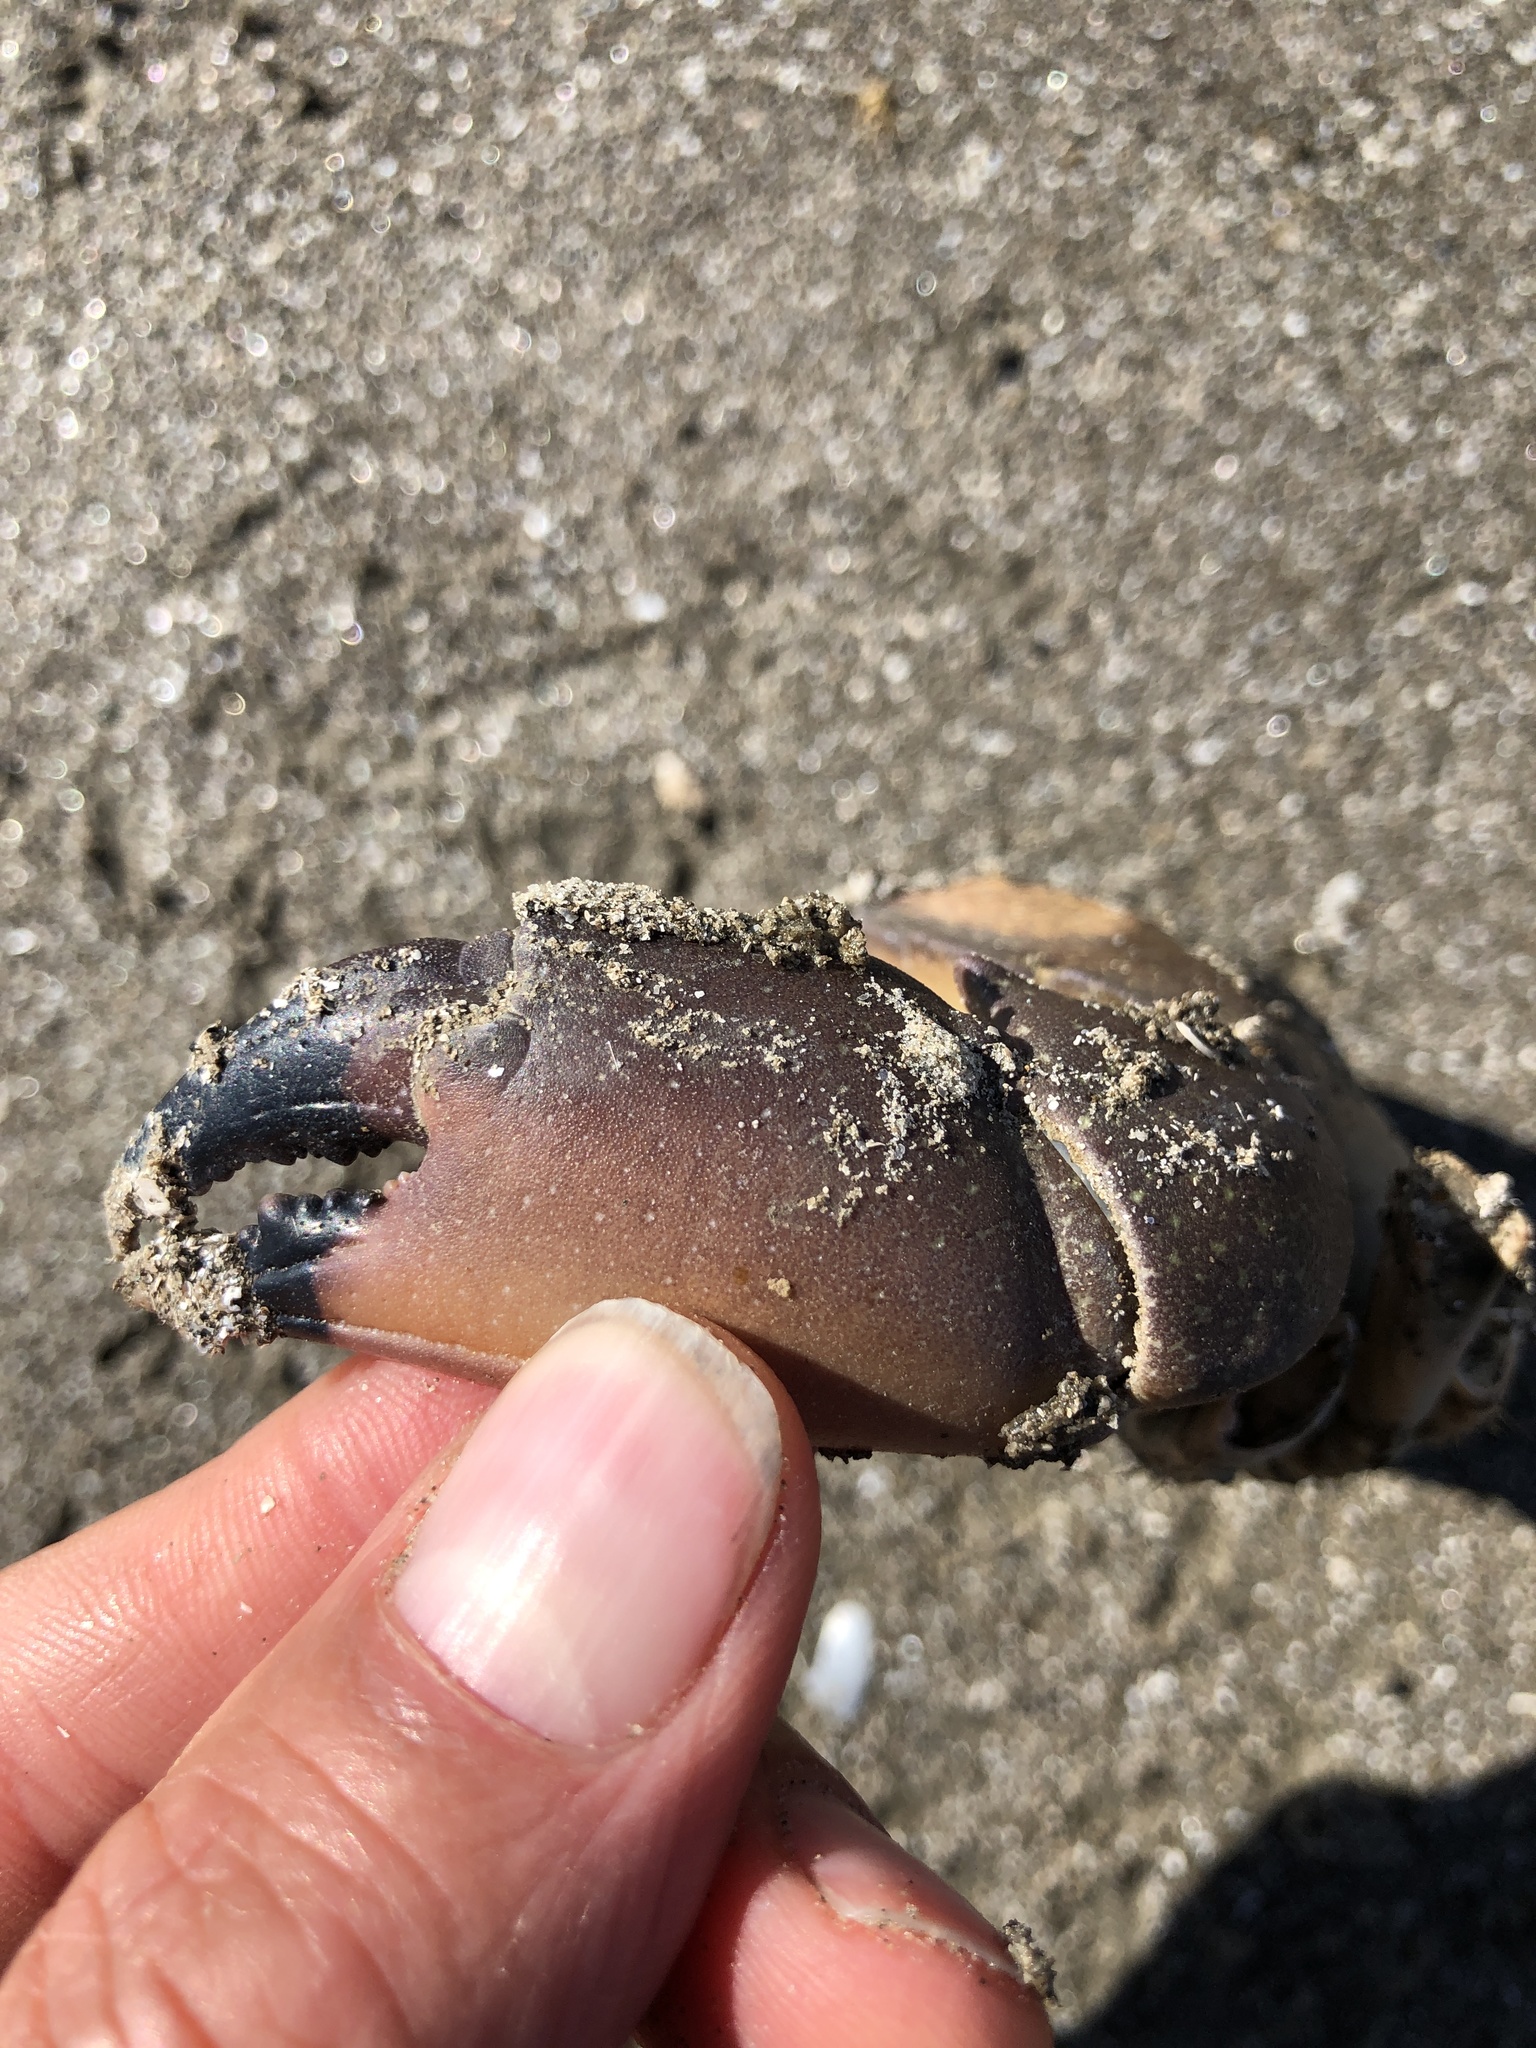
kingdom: Animalia
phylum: Arthropoda
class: Malacostraca
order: Decapoda
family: Menippidae
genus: Menippe
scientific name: Menippe adina
